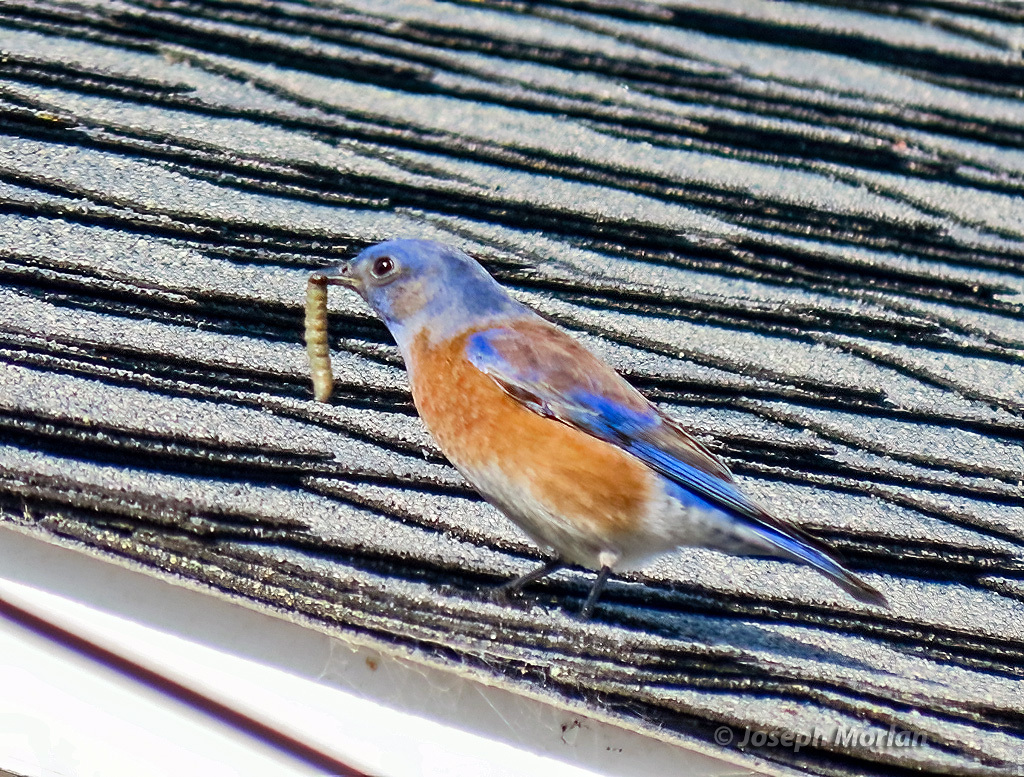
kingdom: Animalia
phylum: Chordata
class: Aves
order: Passeriformes
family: Turdidae
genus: Sialia
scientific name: Sialia mexicana
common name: Western bluebird
